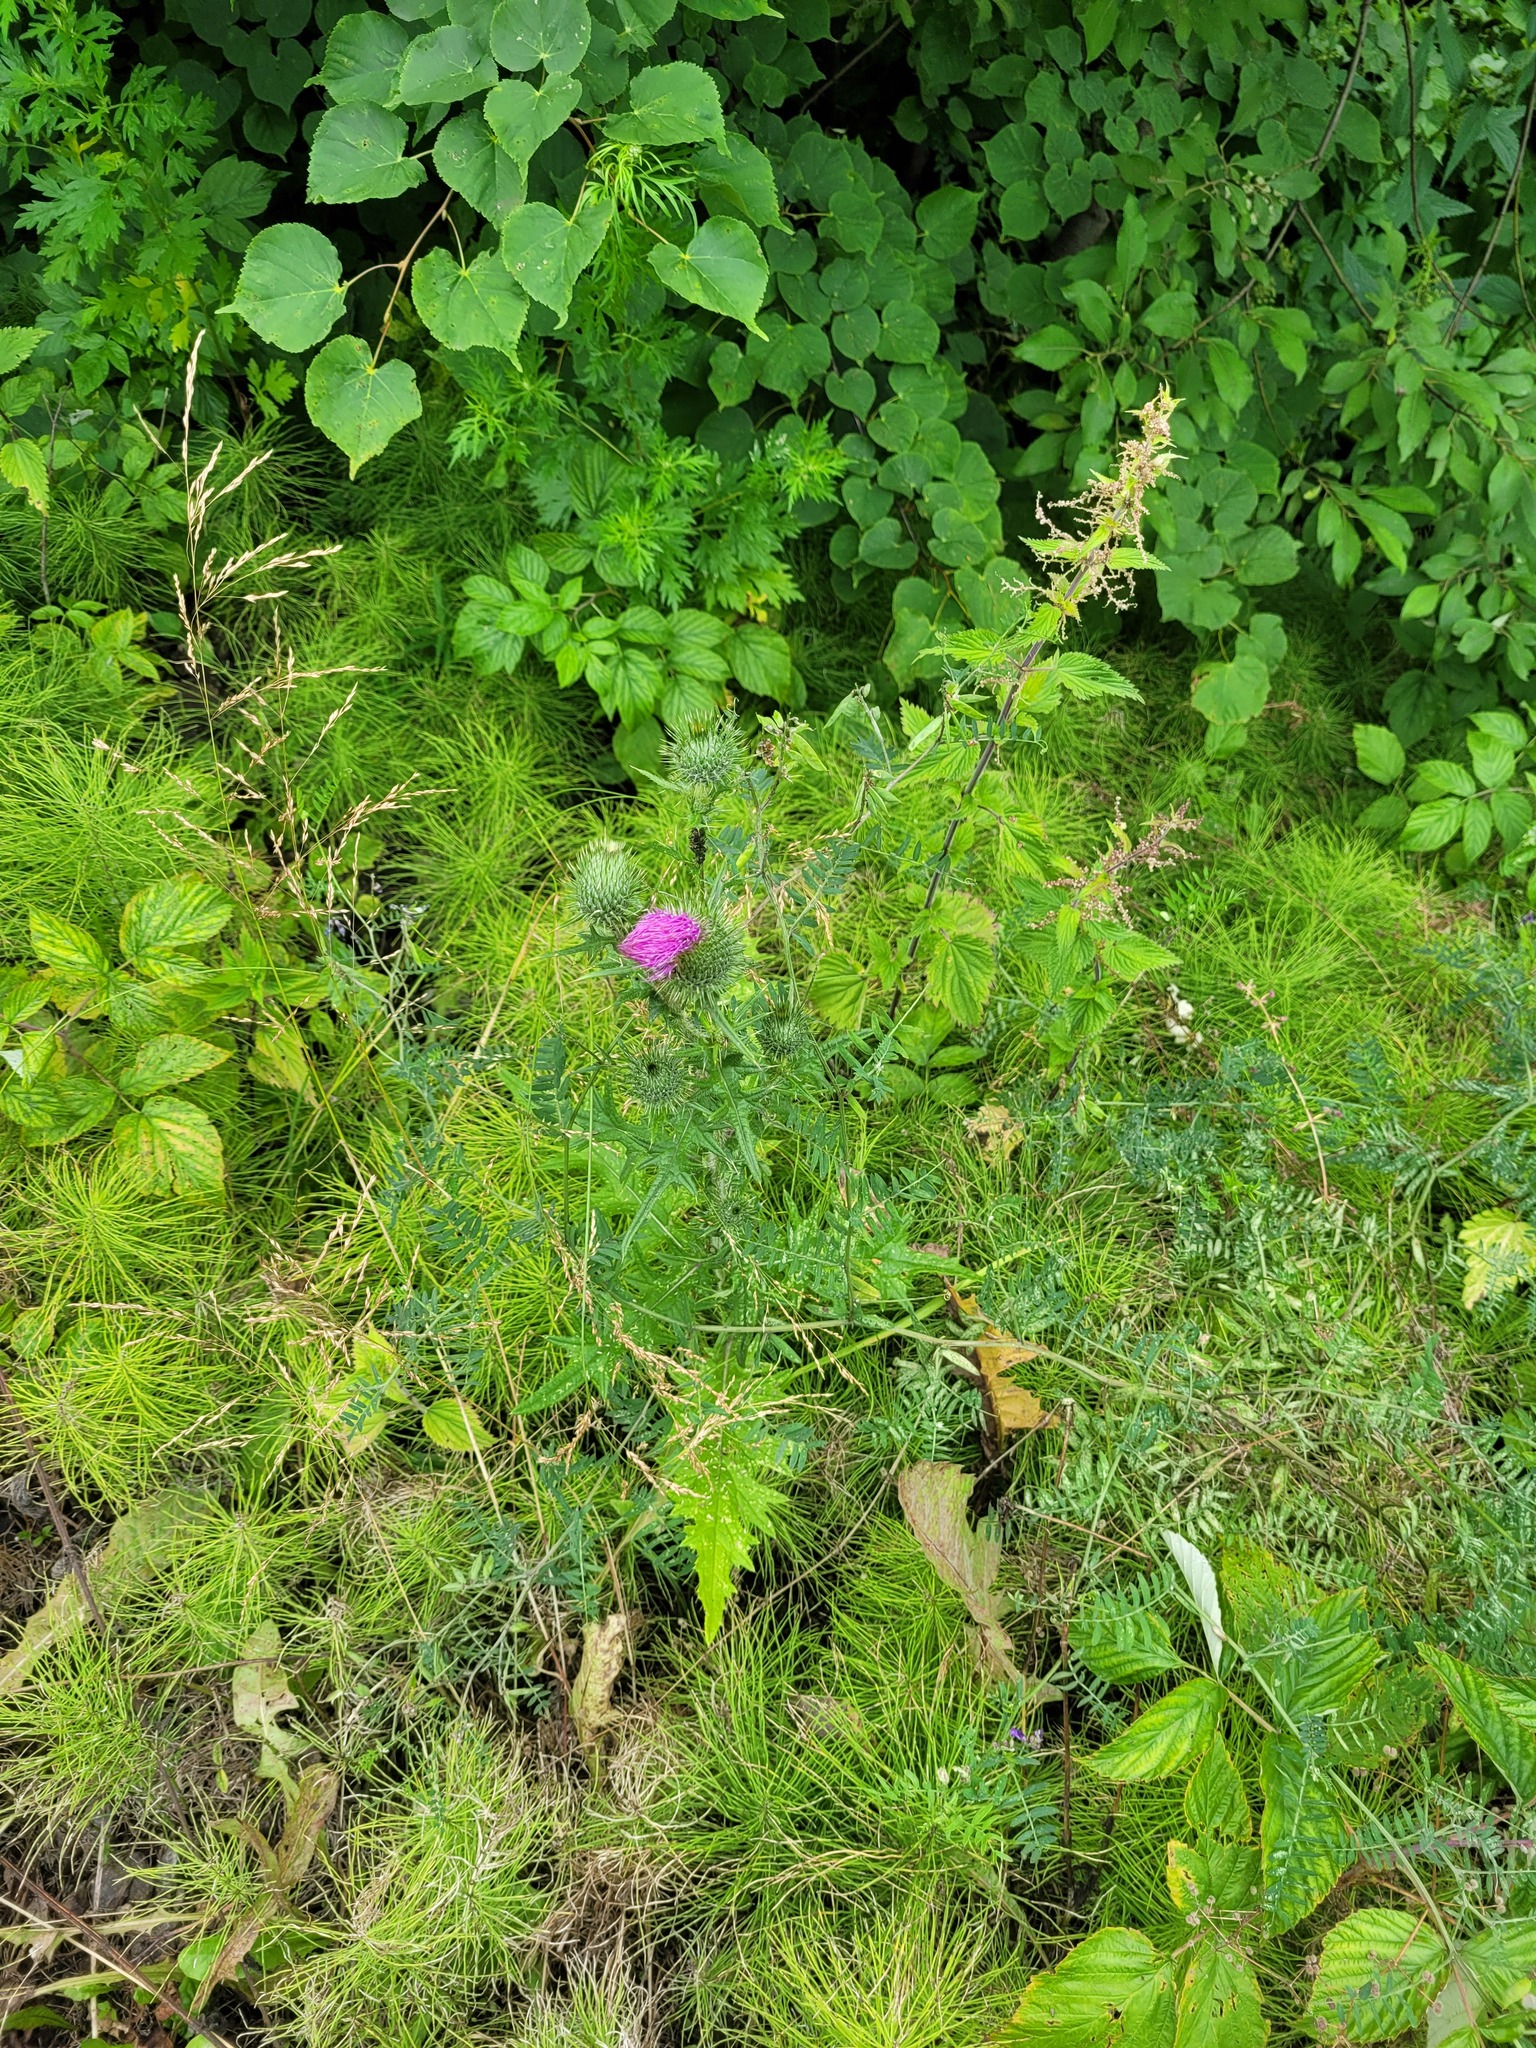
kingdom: Plantae
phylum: Tracheophyta
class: Magnoliopsida
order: Asterales
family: Asteraceae
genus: Cirsium
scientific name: Cirsium vulgare
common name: Bull thistle
